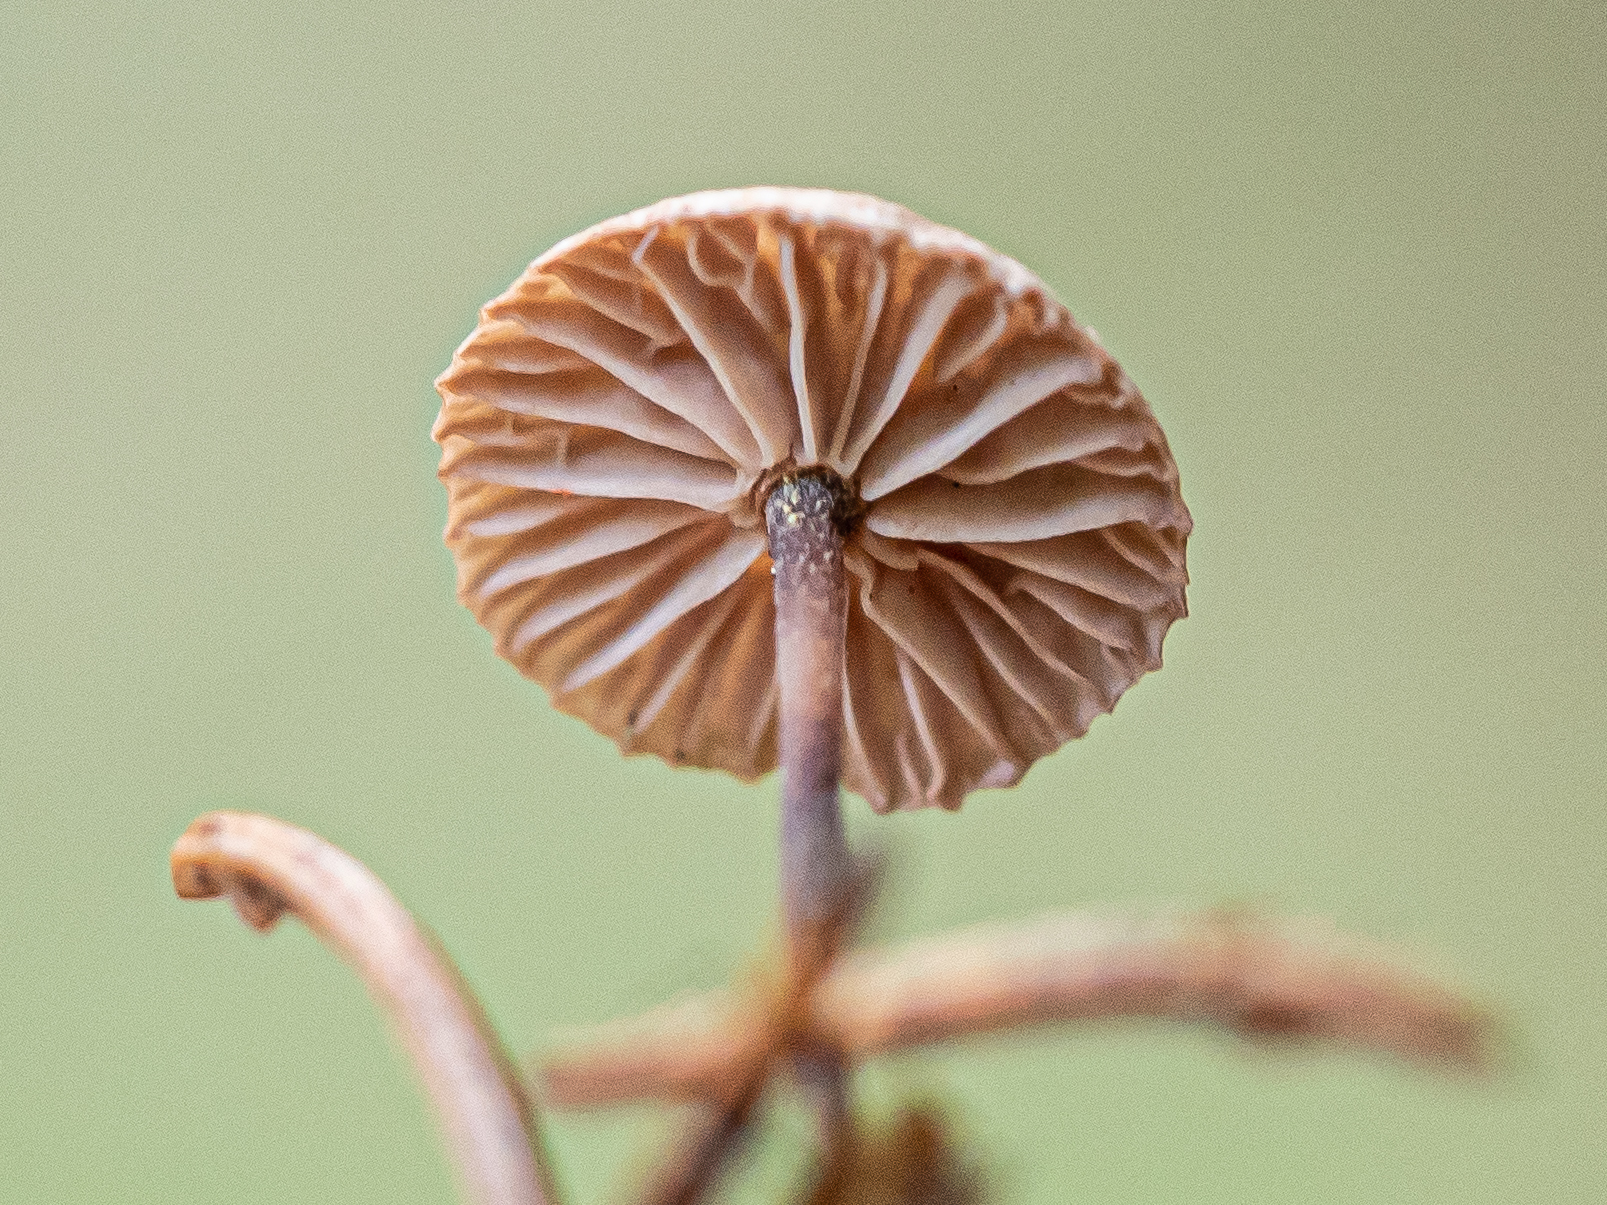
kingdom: Fungi
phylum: Basidiomycota
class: Agaricomycetes
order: Agaricales
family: Omphalotaceae
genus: Paragymnopus
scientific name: Paragymnopus perforans
